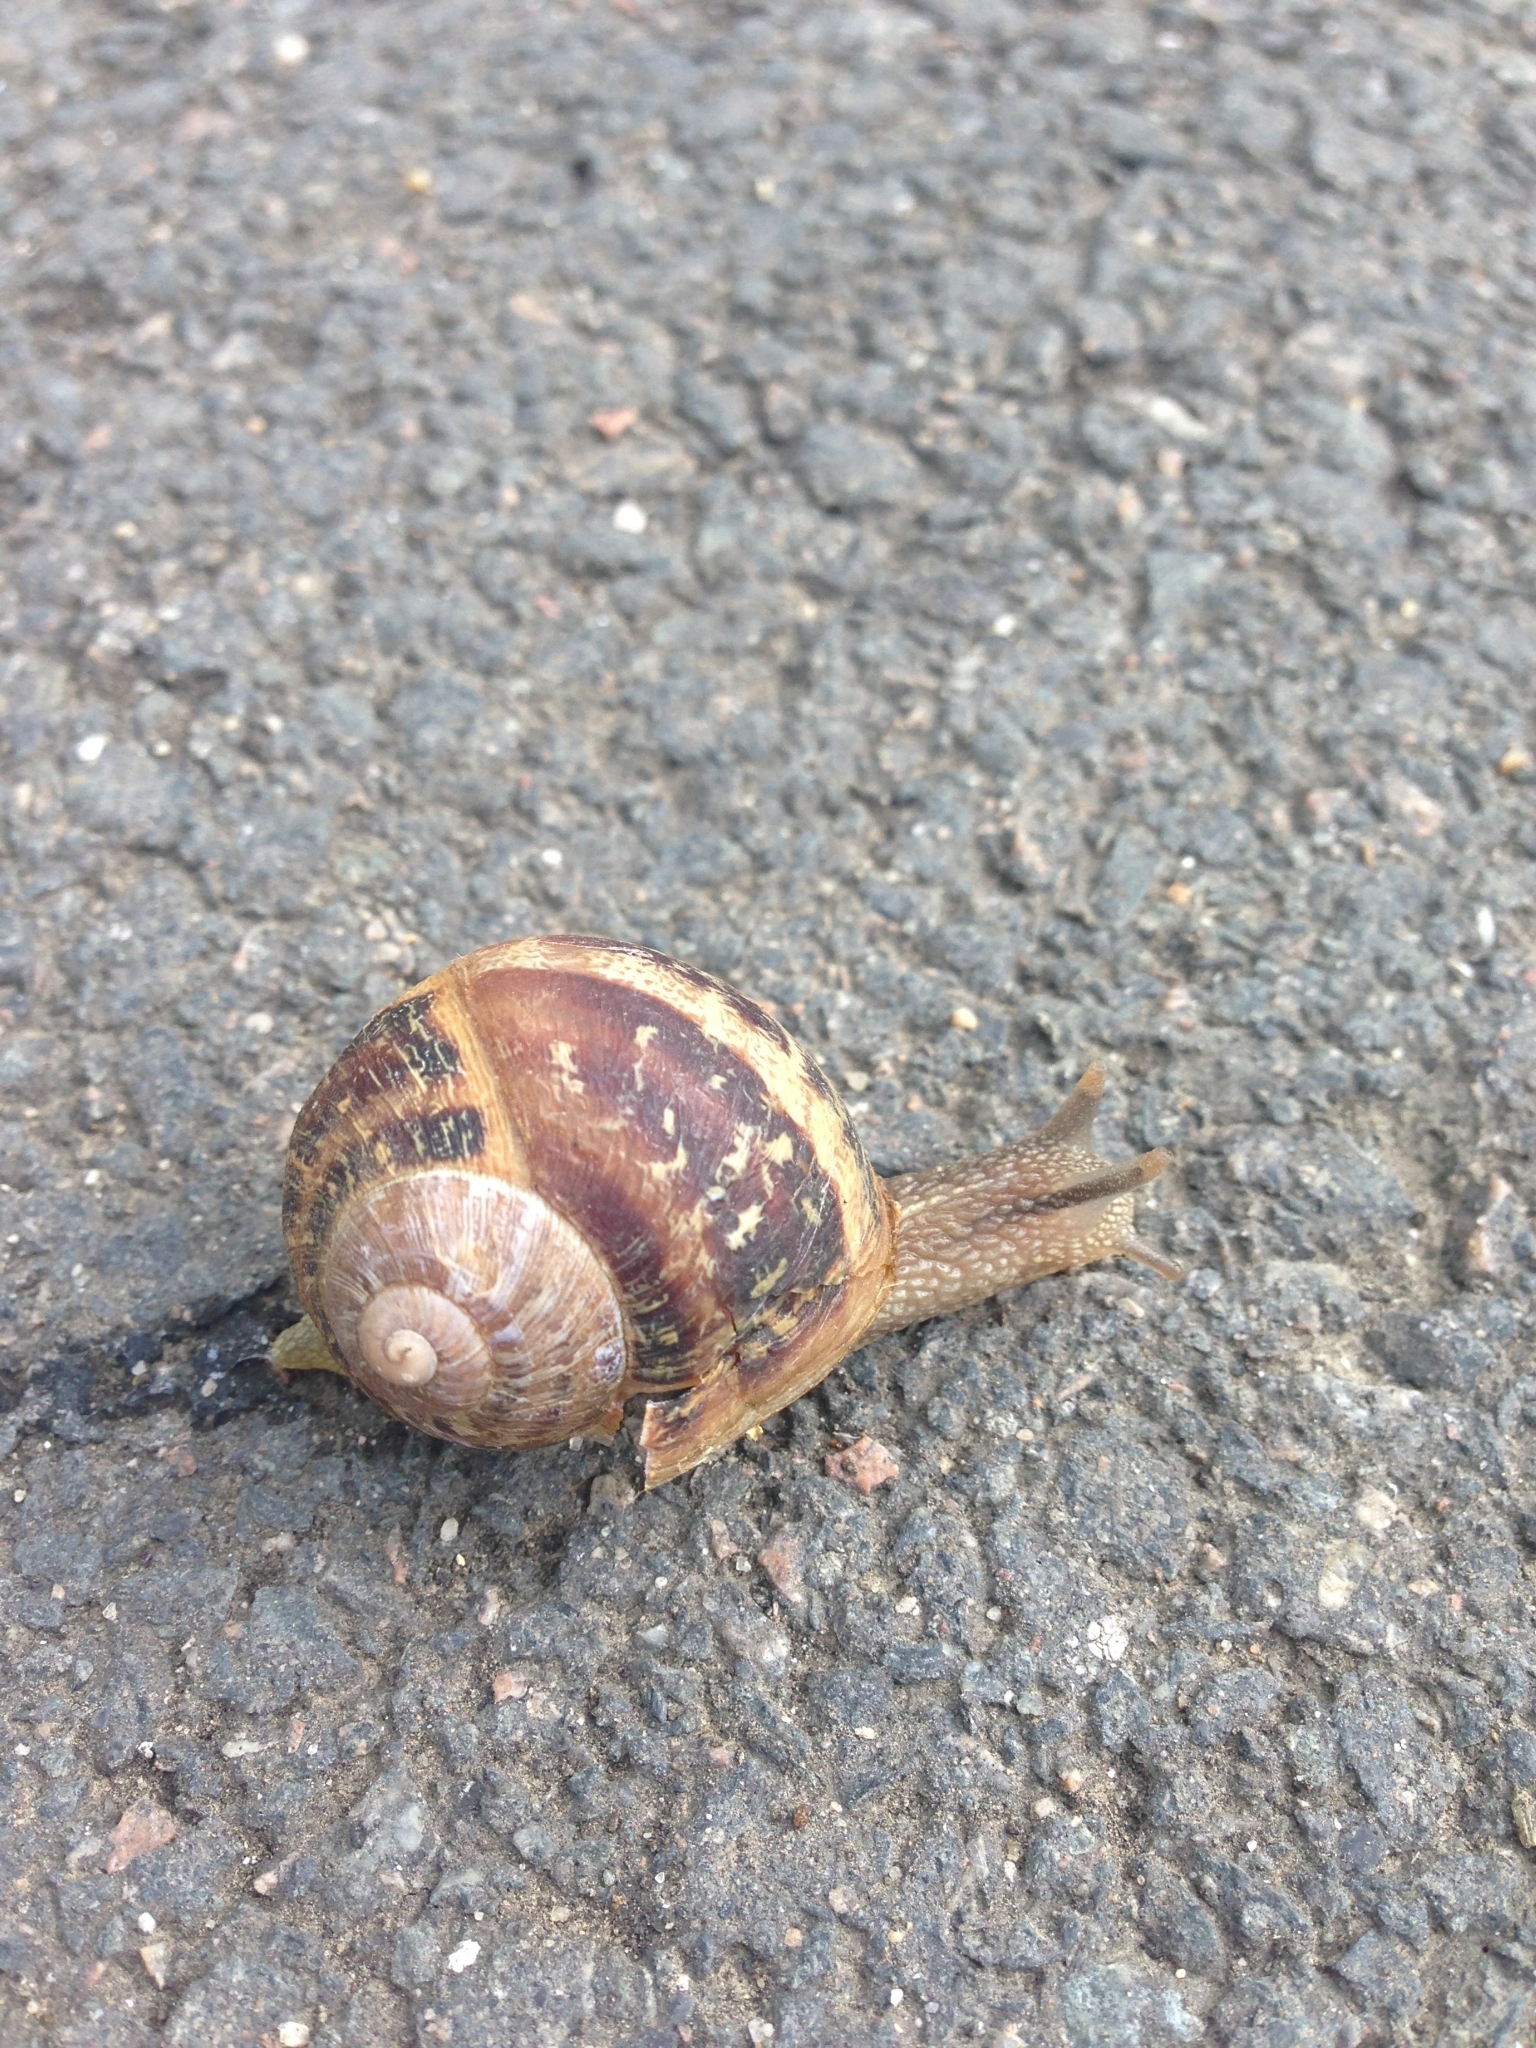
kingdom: Animalia
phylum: Mollusca
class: Gastropoda
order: Stylommatophora
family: Helicidae
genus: Cornu
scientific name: Cornu aspersum
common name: Brown garden snail
